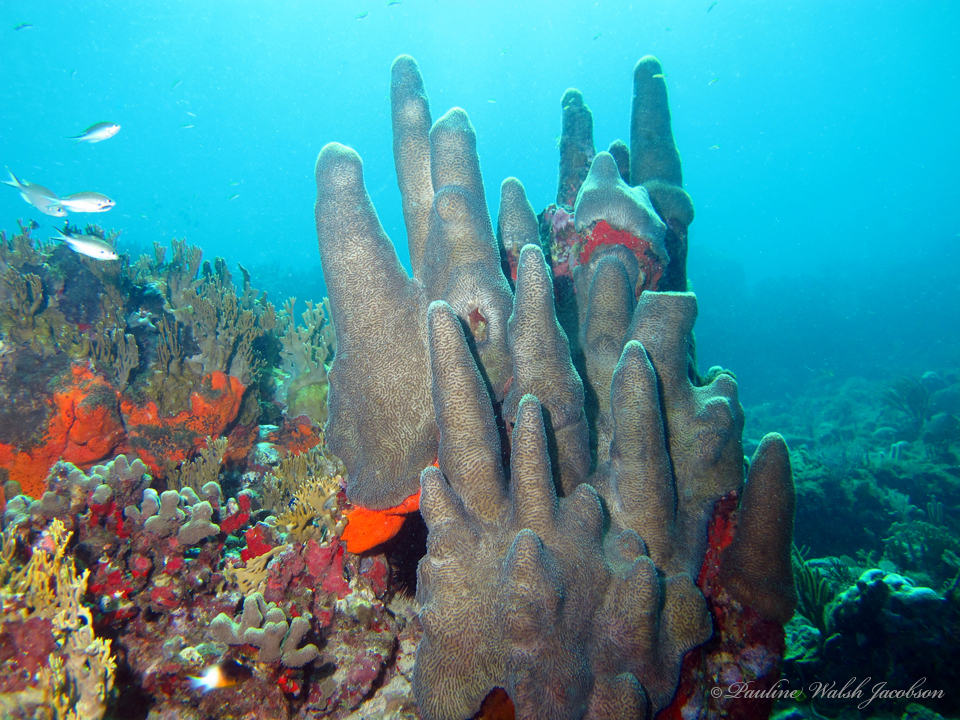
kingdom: Animalia
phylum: Cnidaria
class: Anthozoa
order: Scleractinia
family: Meandrinidae
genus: Dendrogyra
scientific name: Dendrogyra cylindrus
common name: Pillar coral
